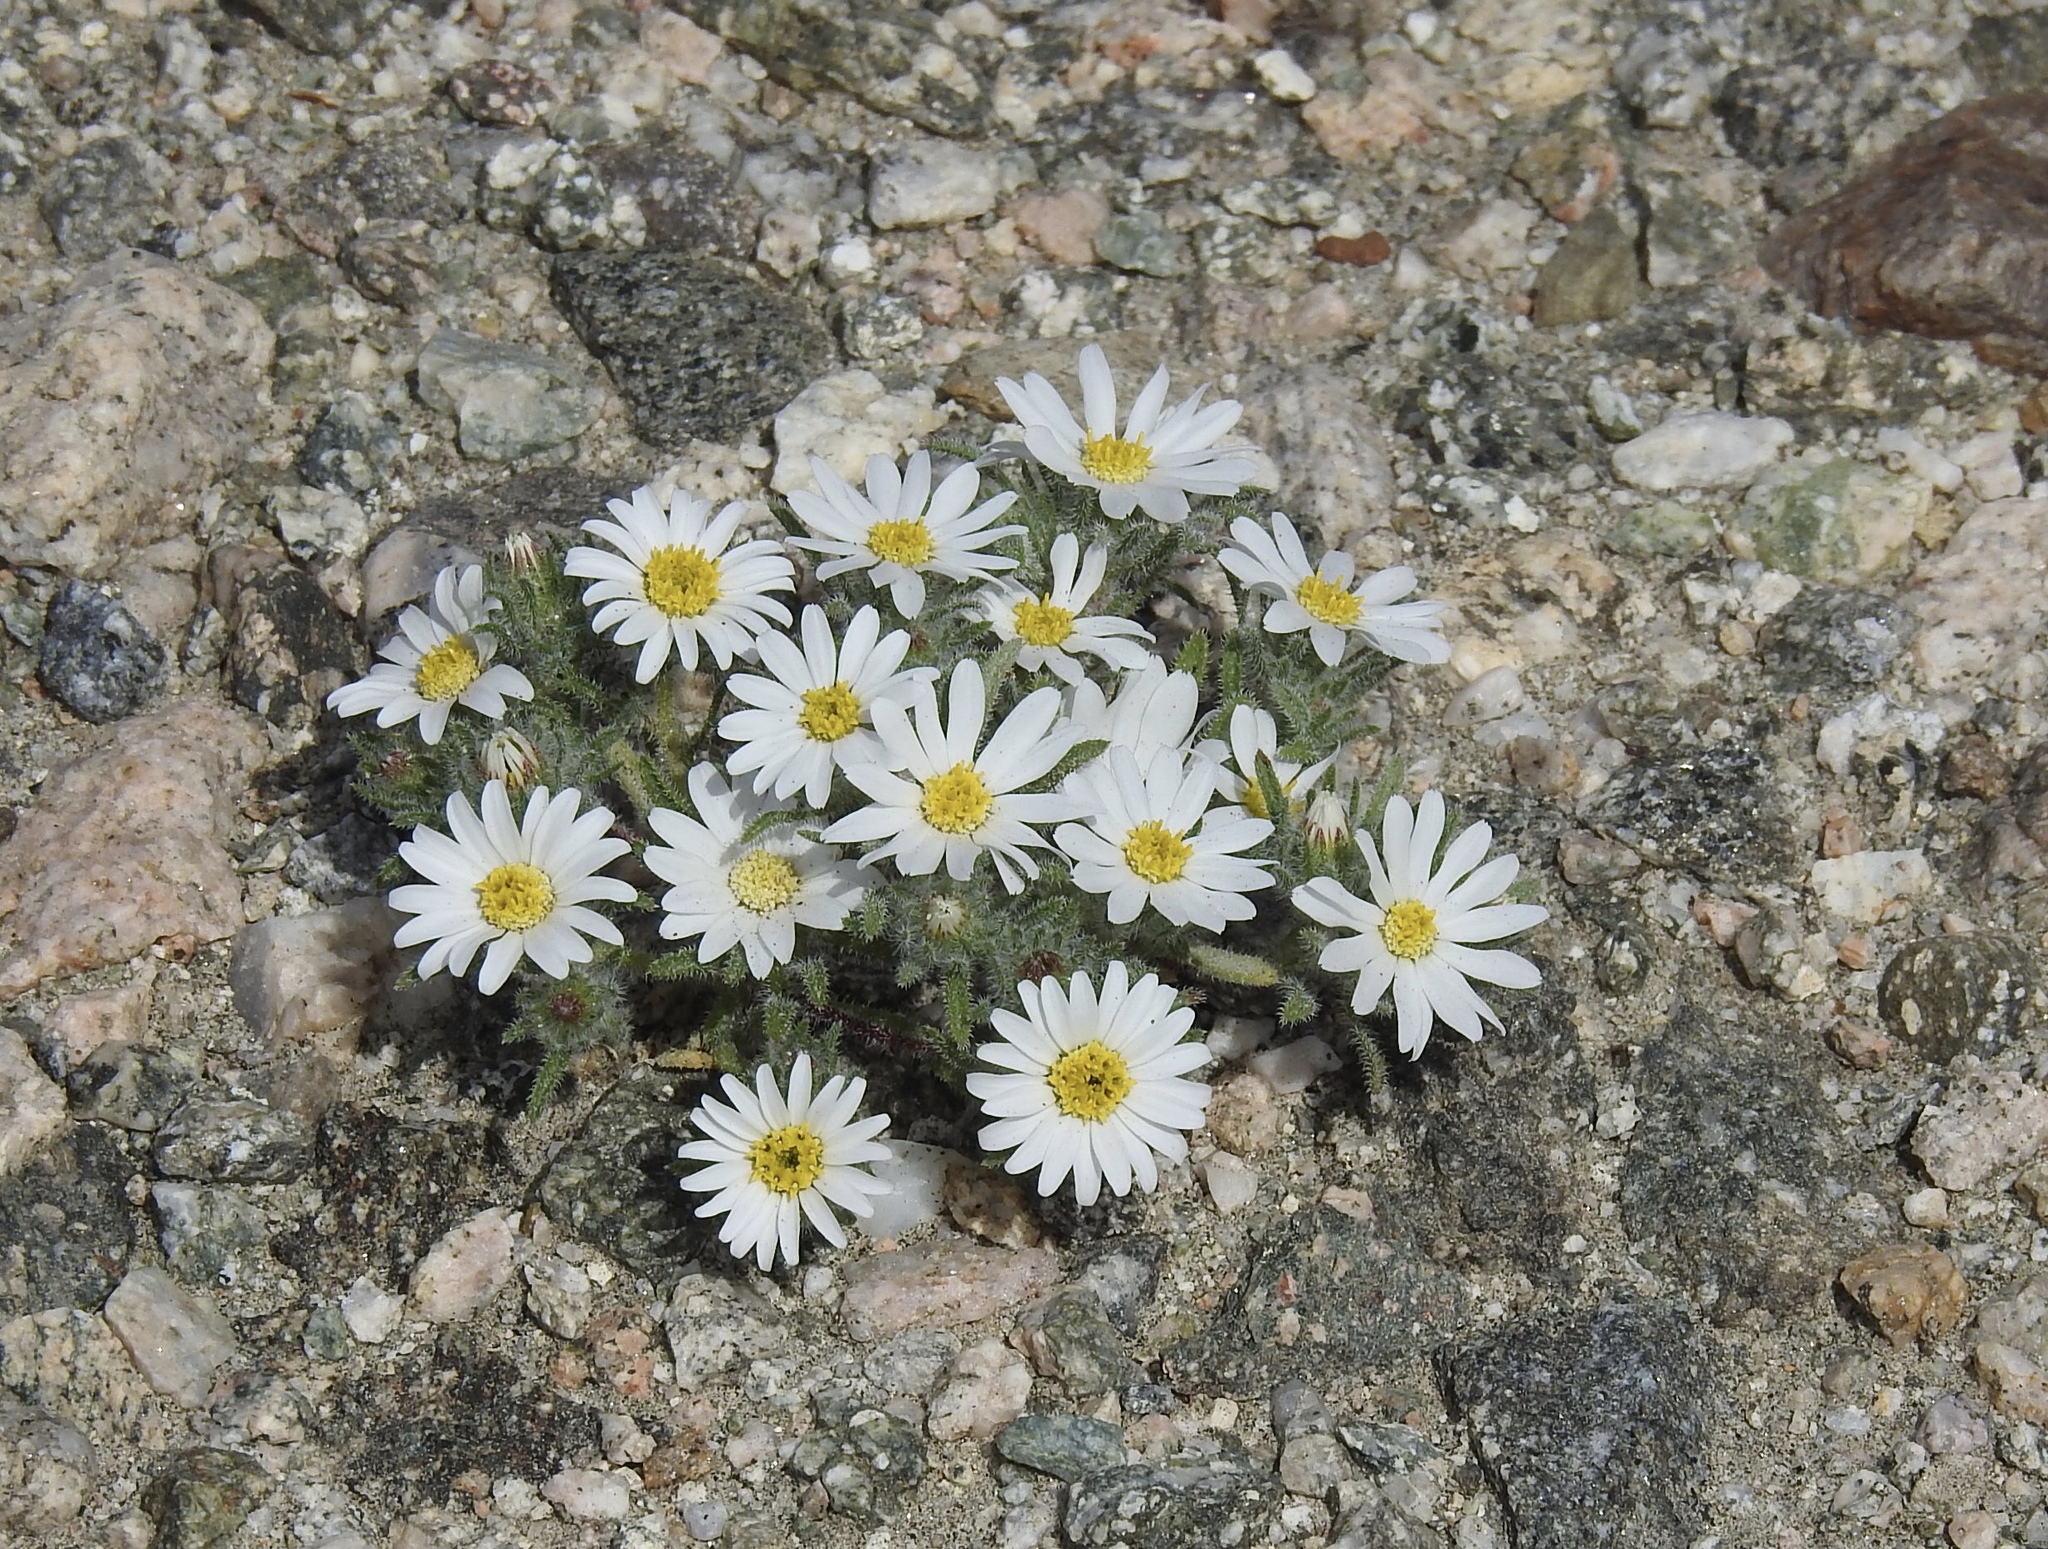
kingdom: Plantae
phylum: Tracheophyta
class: Magnoliopsida
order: Asterales
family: Asteraceae
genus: Monoptilon
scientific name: Monoptilon bellioides
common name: Bristly desertstar
